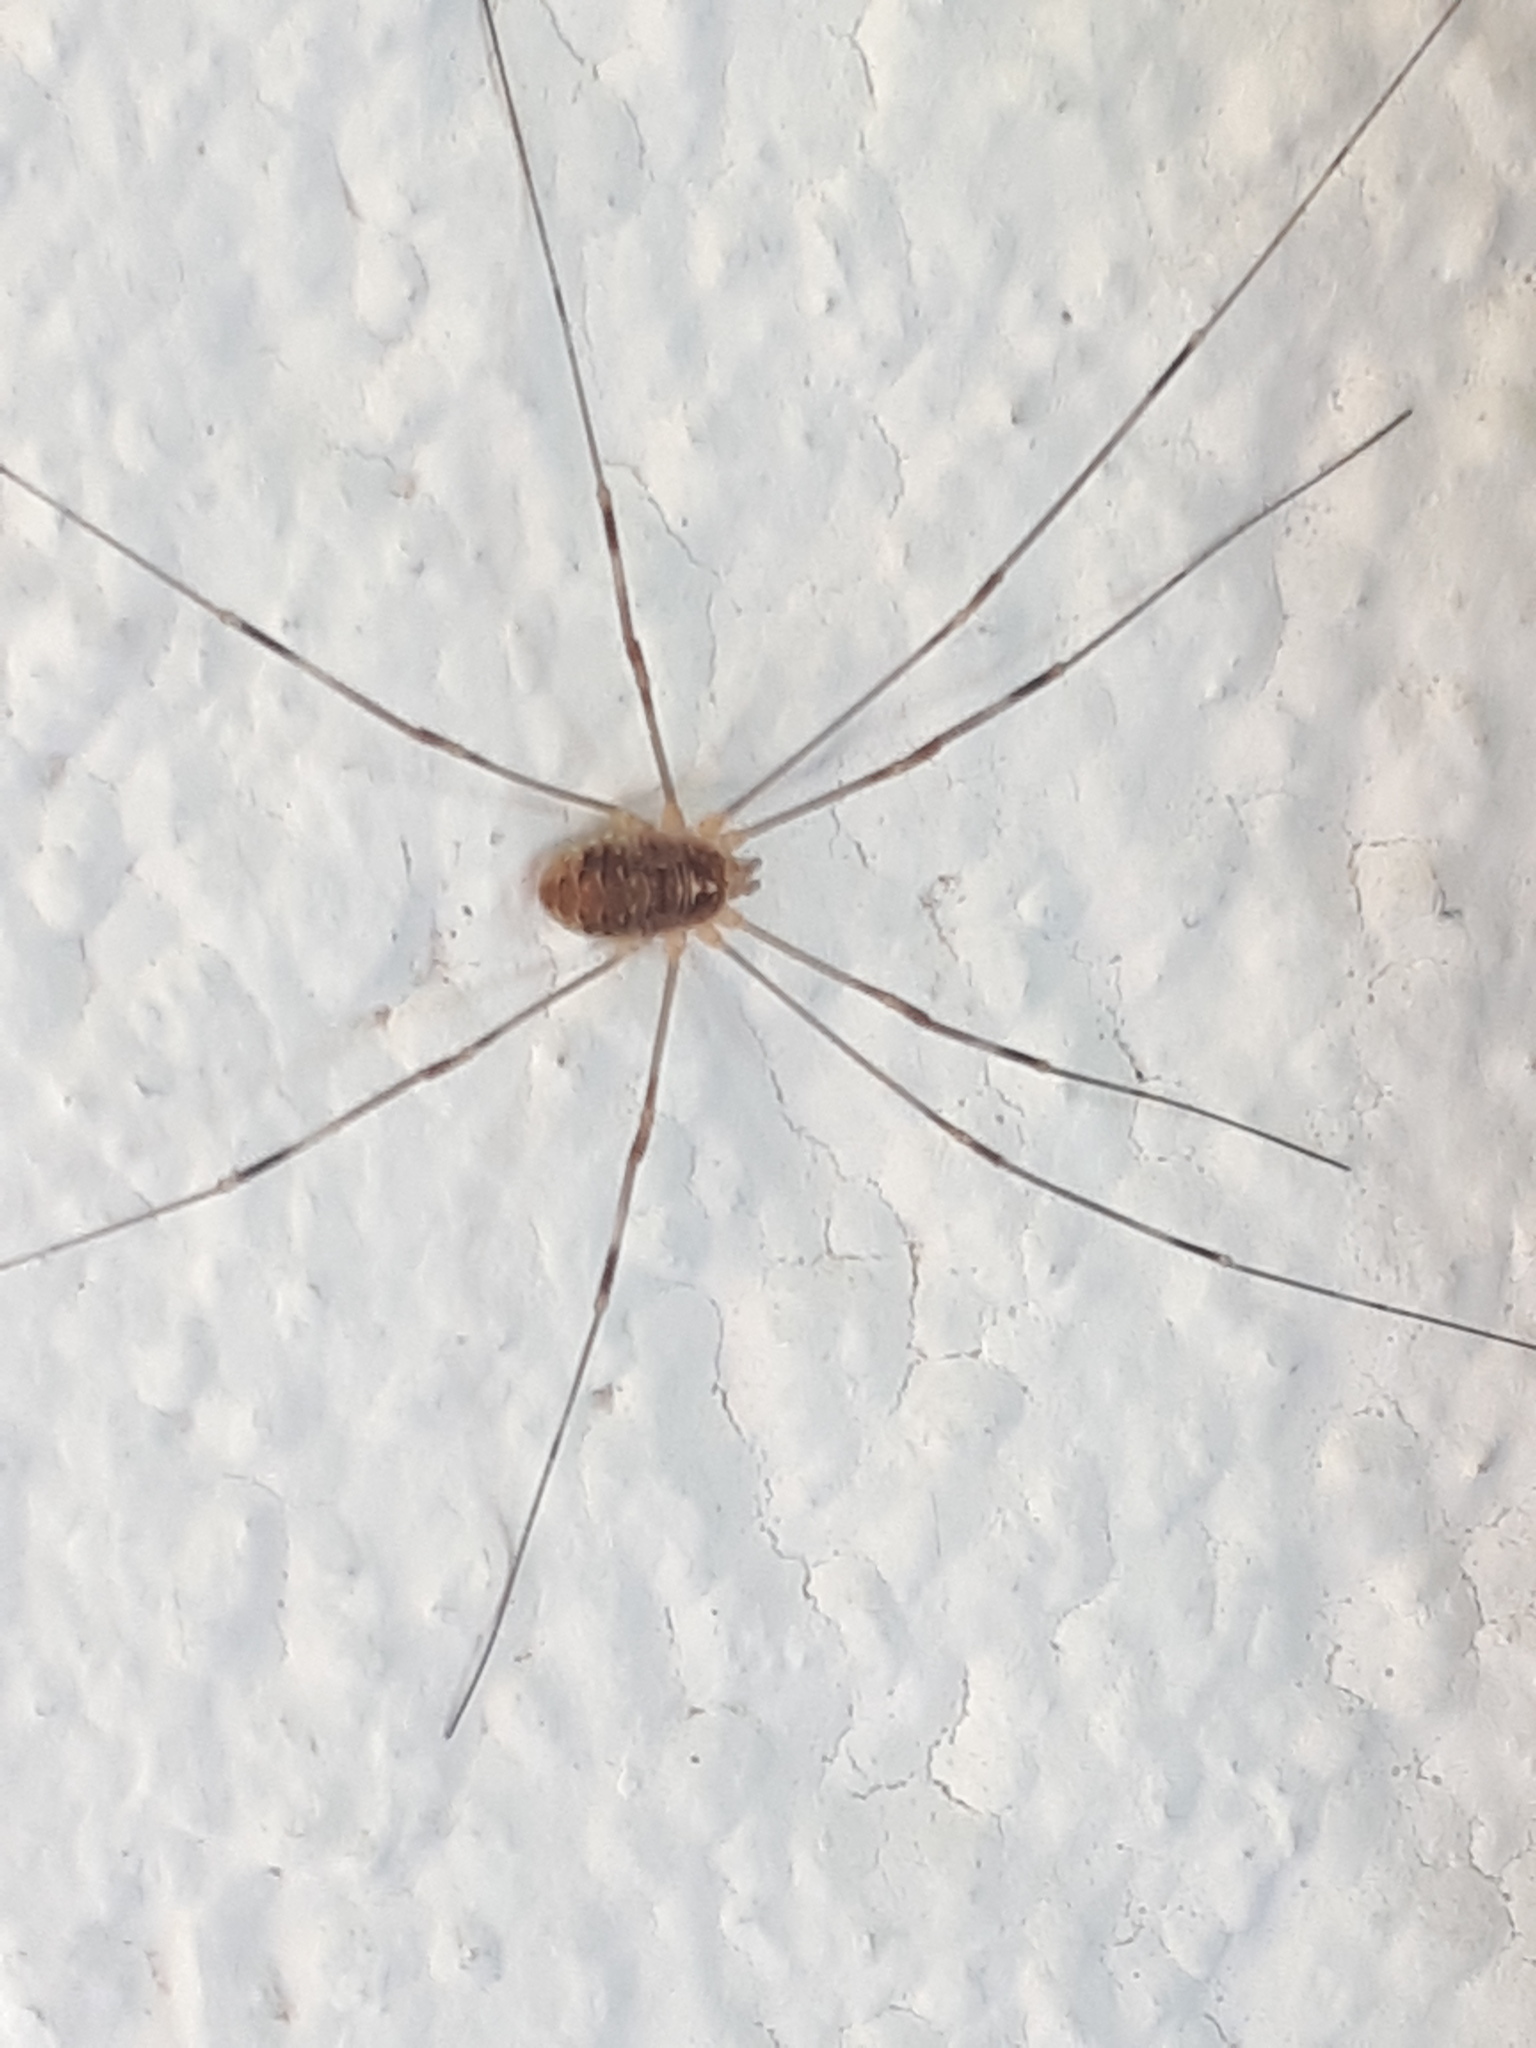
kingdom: Animalia
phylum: Arthropoda
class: Arachnida
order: Opiliones
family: Phalangiidae
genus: Opilio
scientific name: Opilio canestrinii
